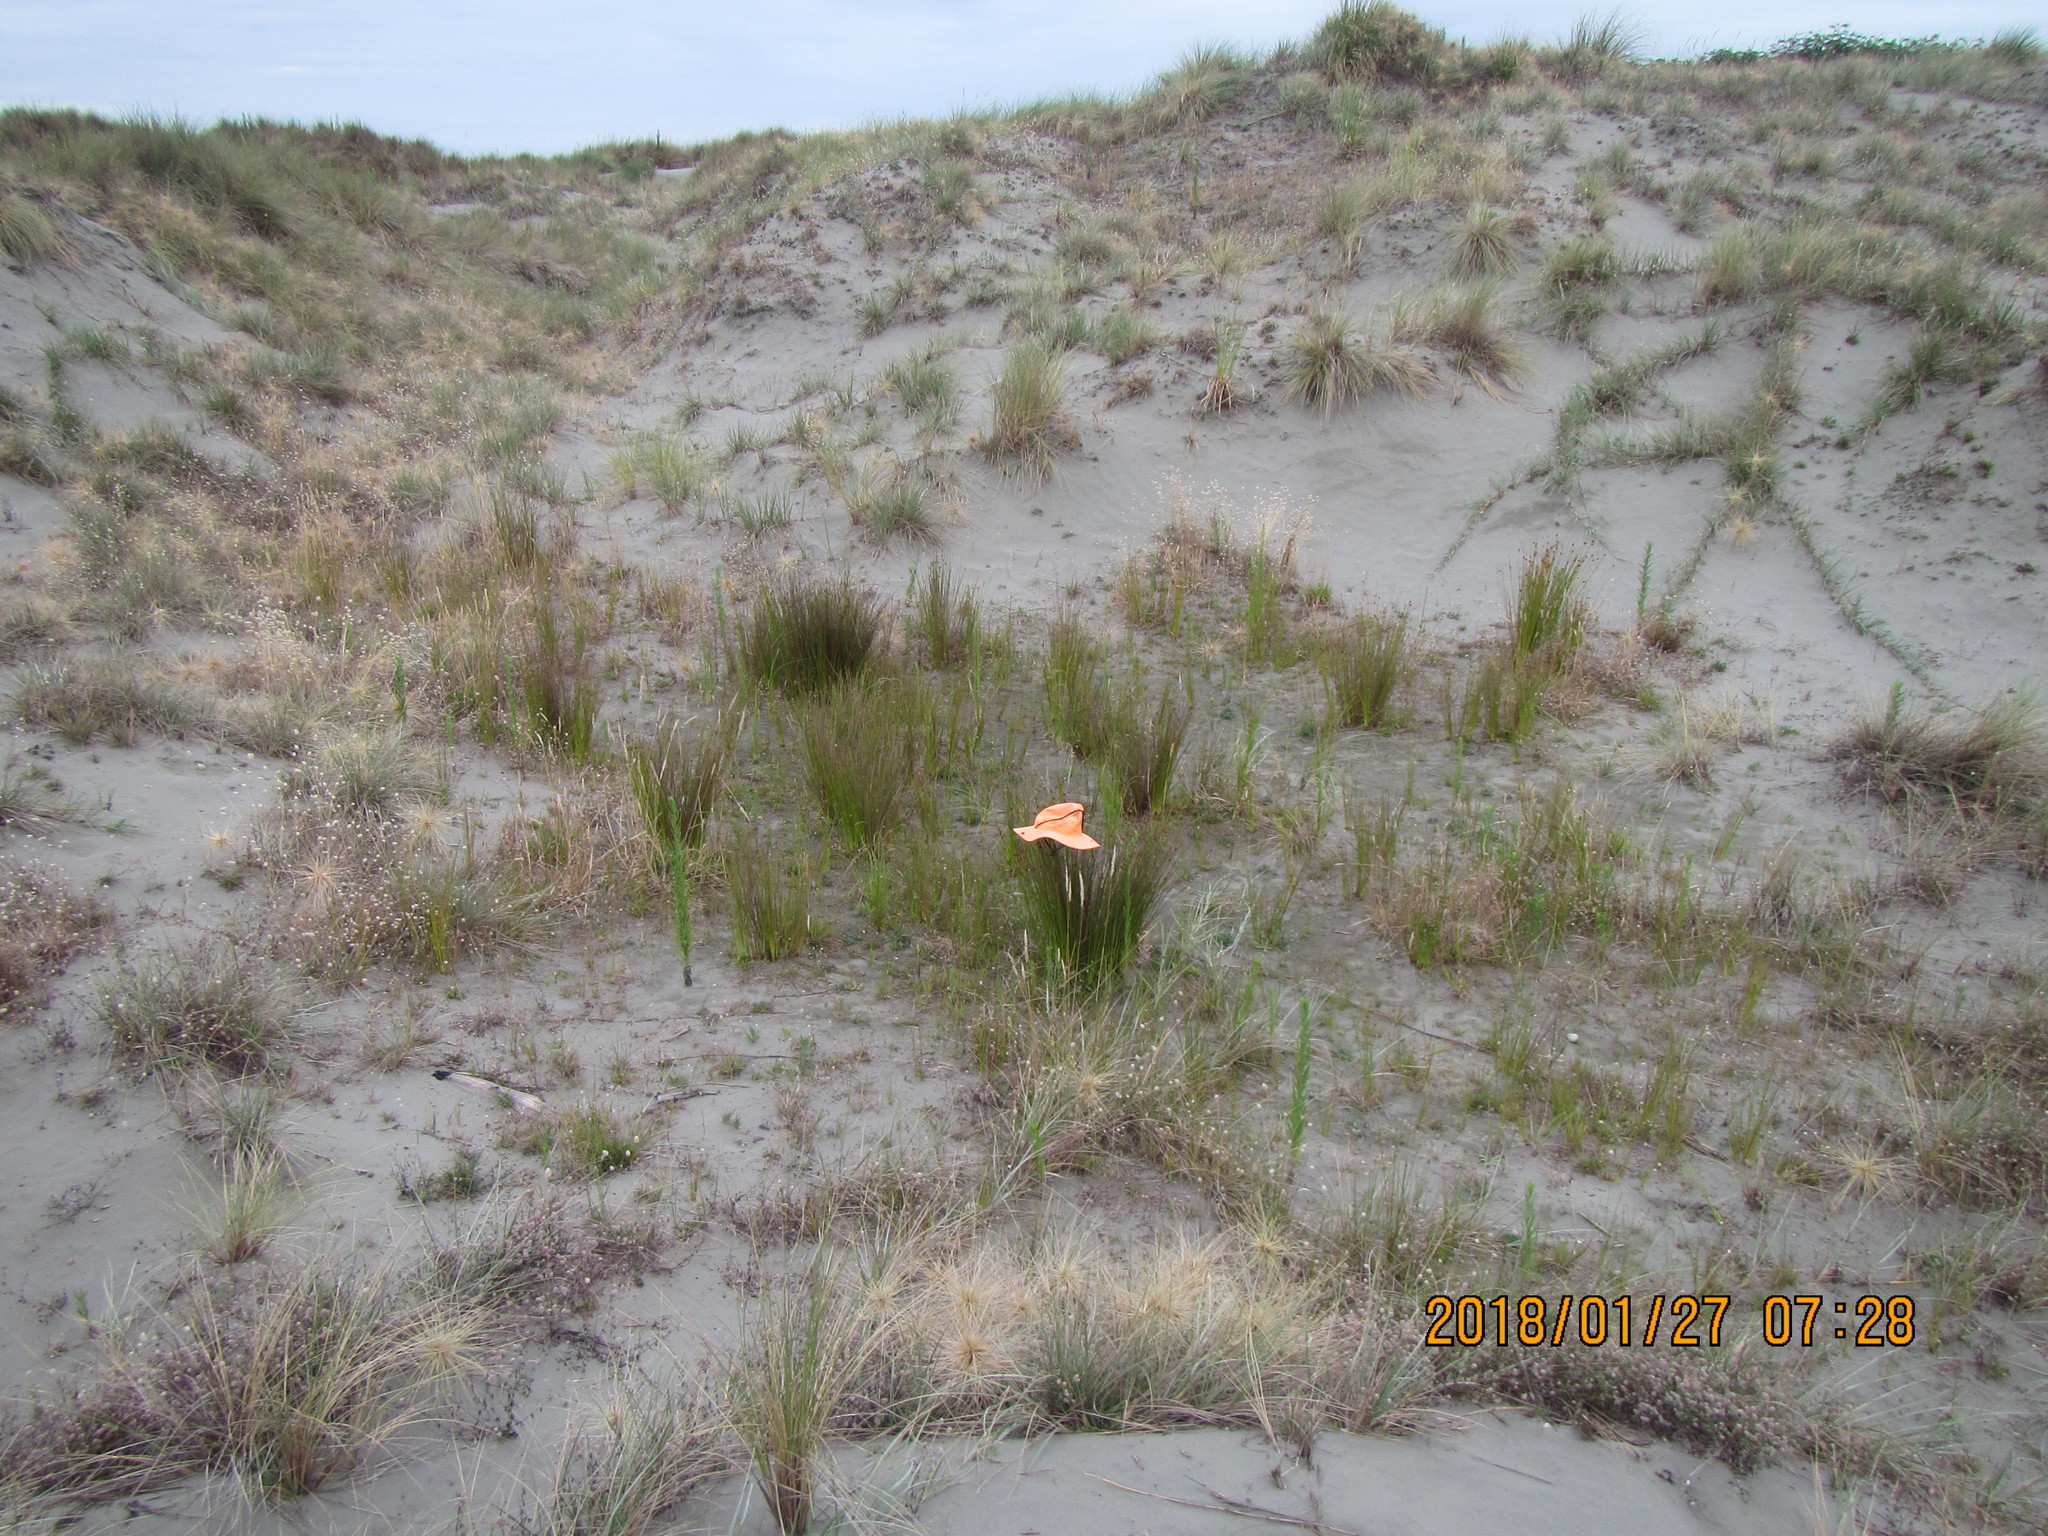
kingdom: Plantae
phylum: Tracheophyta
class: Liliopsida
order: Poales
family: Cyperaceae
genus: Ficinia
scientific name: Ficinia nodosa
